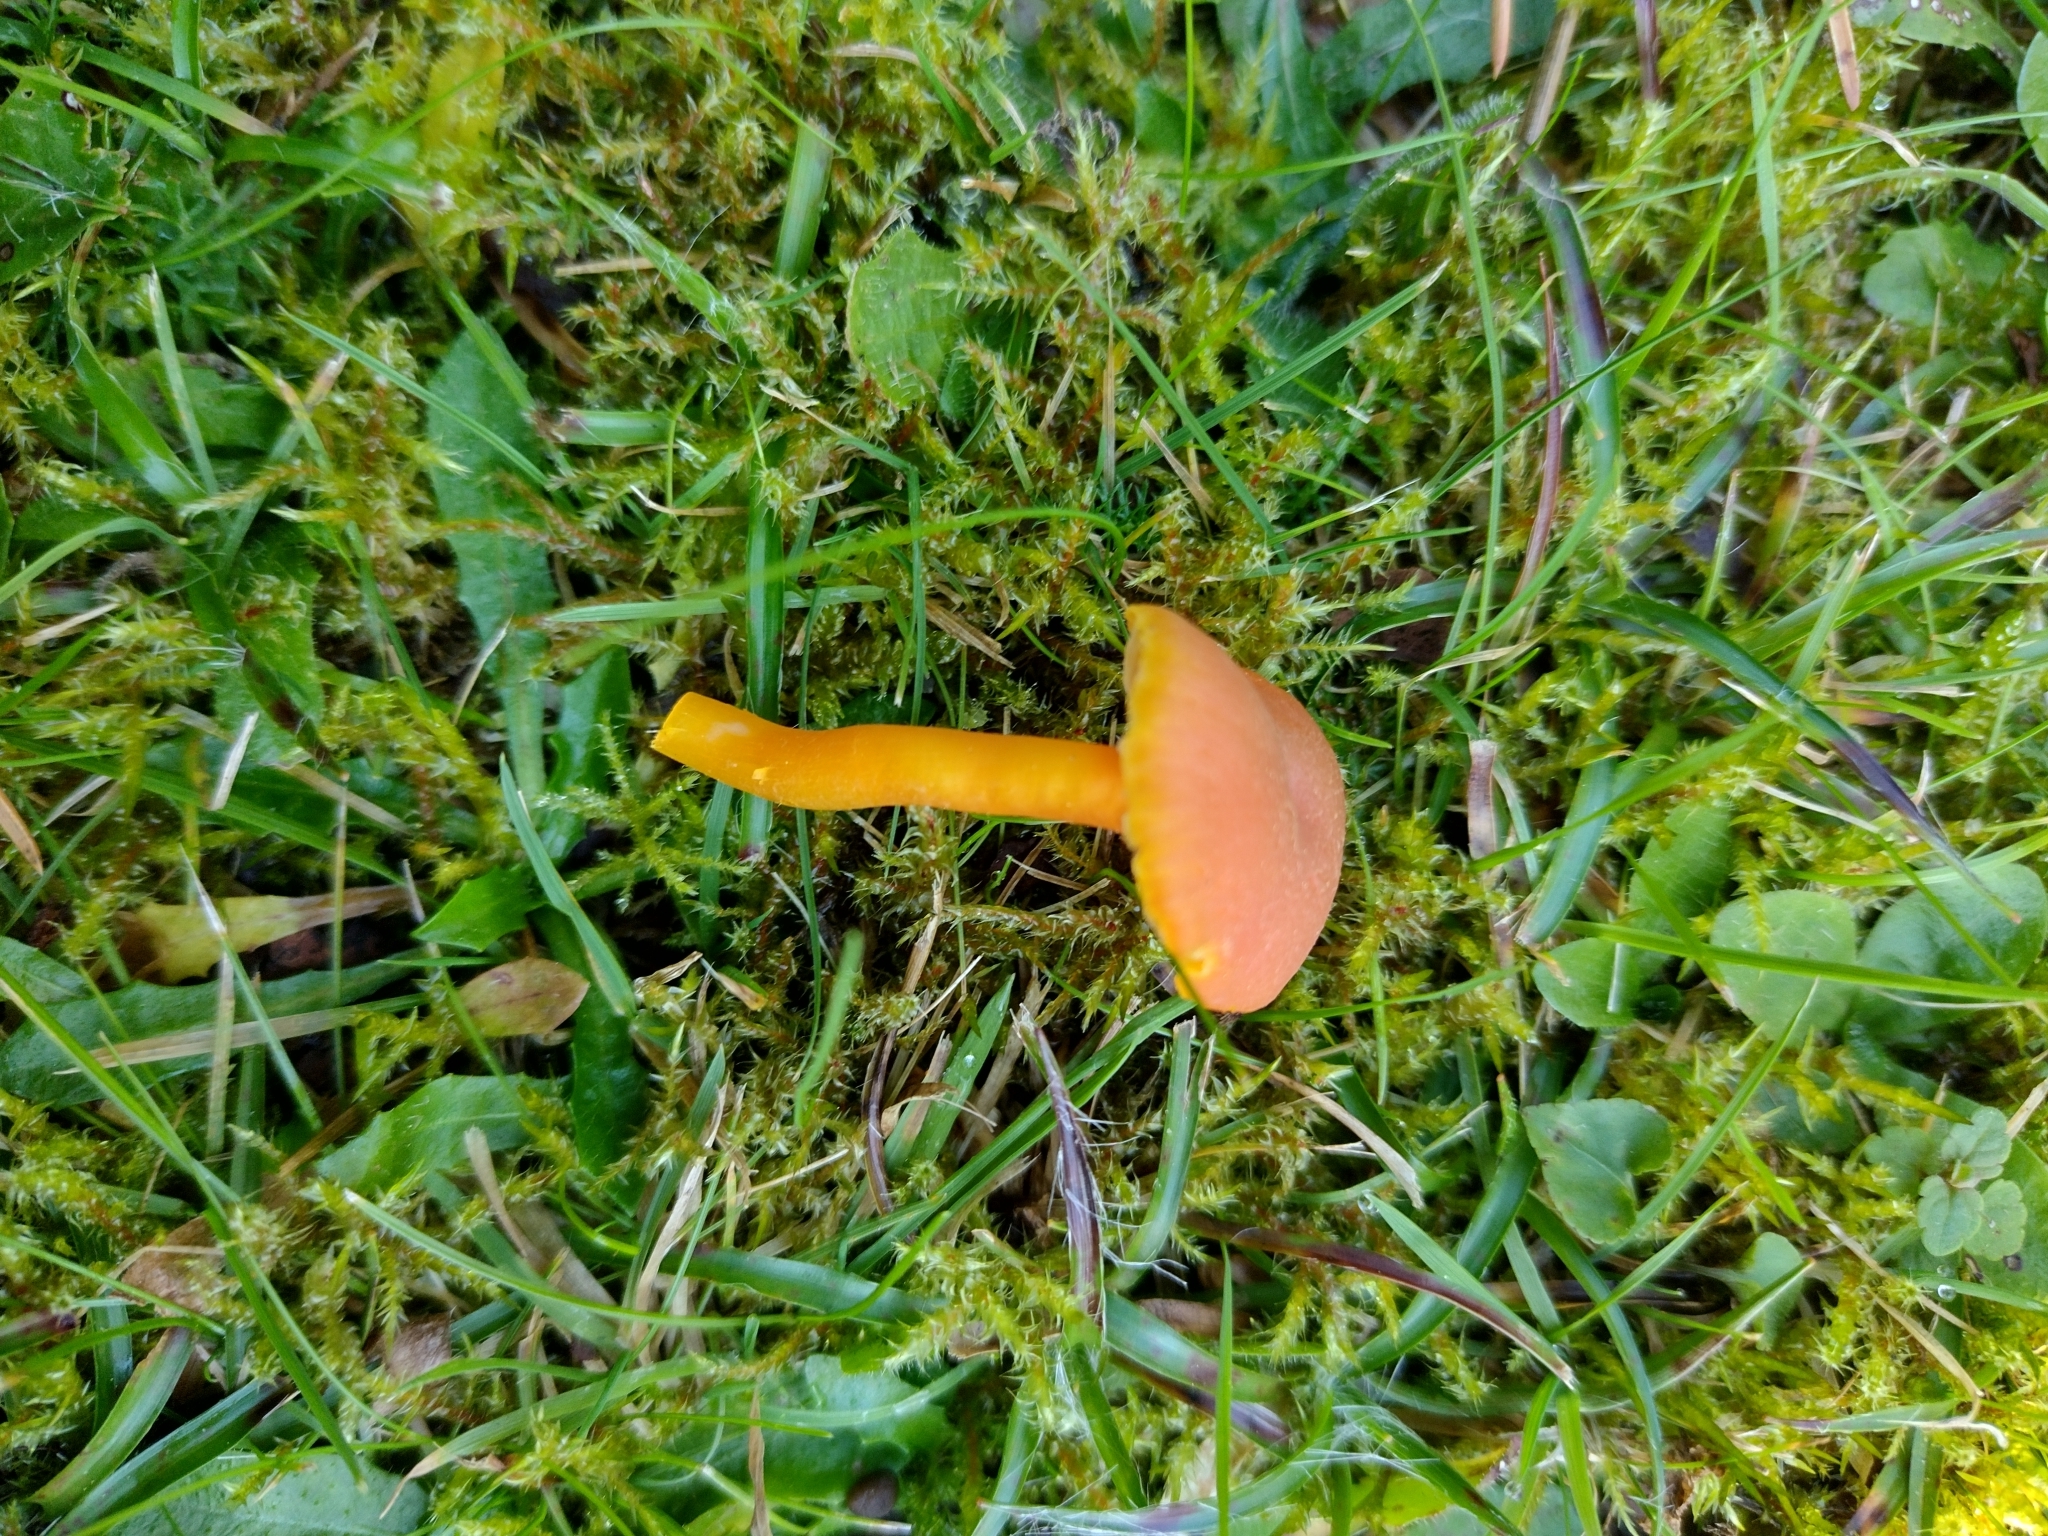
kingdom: Fungi
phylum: Basidiomycota
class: Agaricomycetes
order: Agaricales
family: Hygrophoraceae
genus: Hygrocybe
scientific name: Hygrocybe reidii
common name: Honey waxcap
